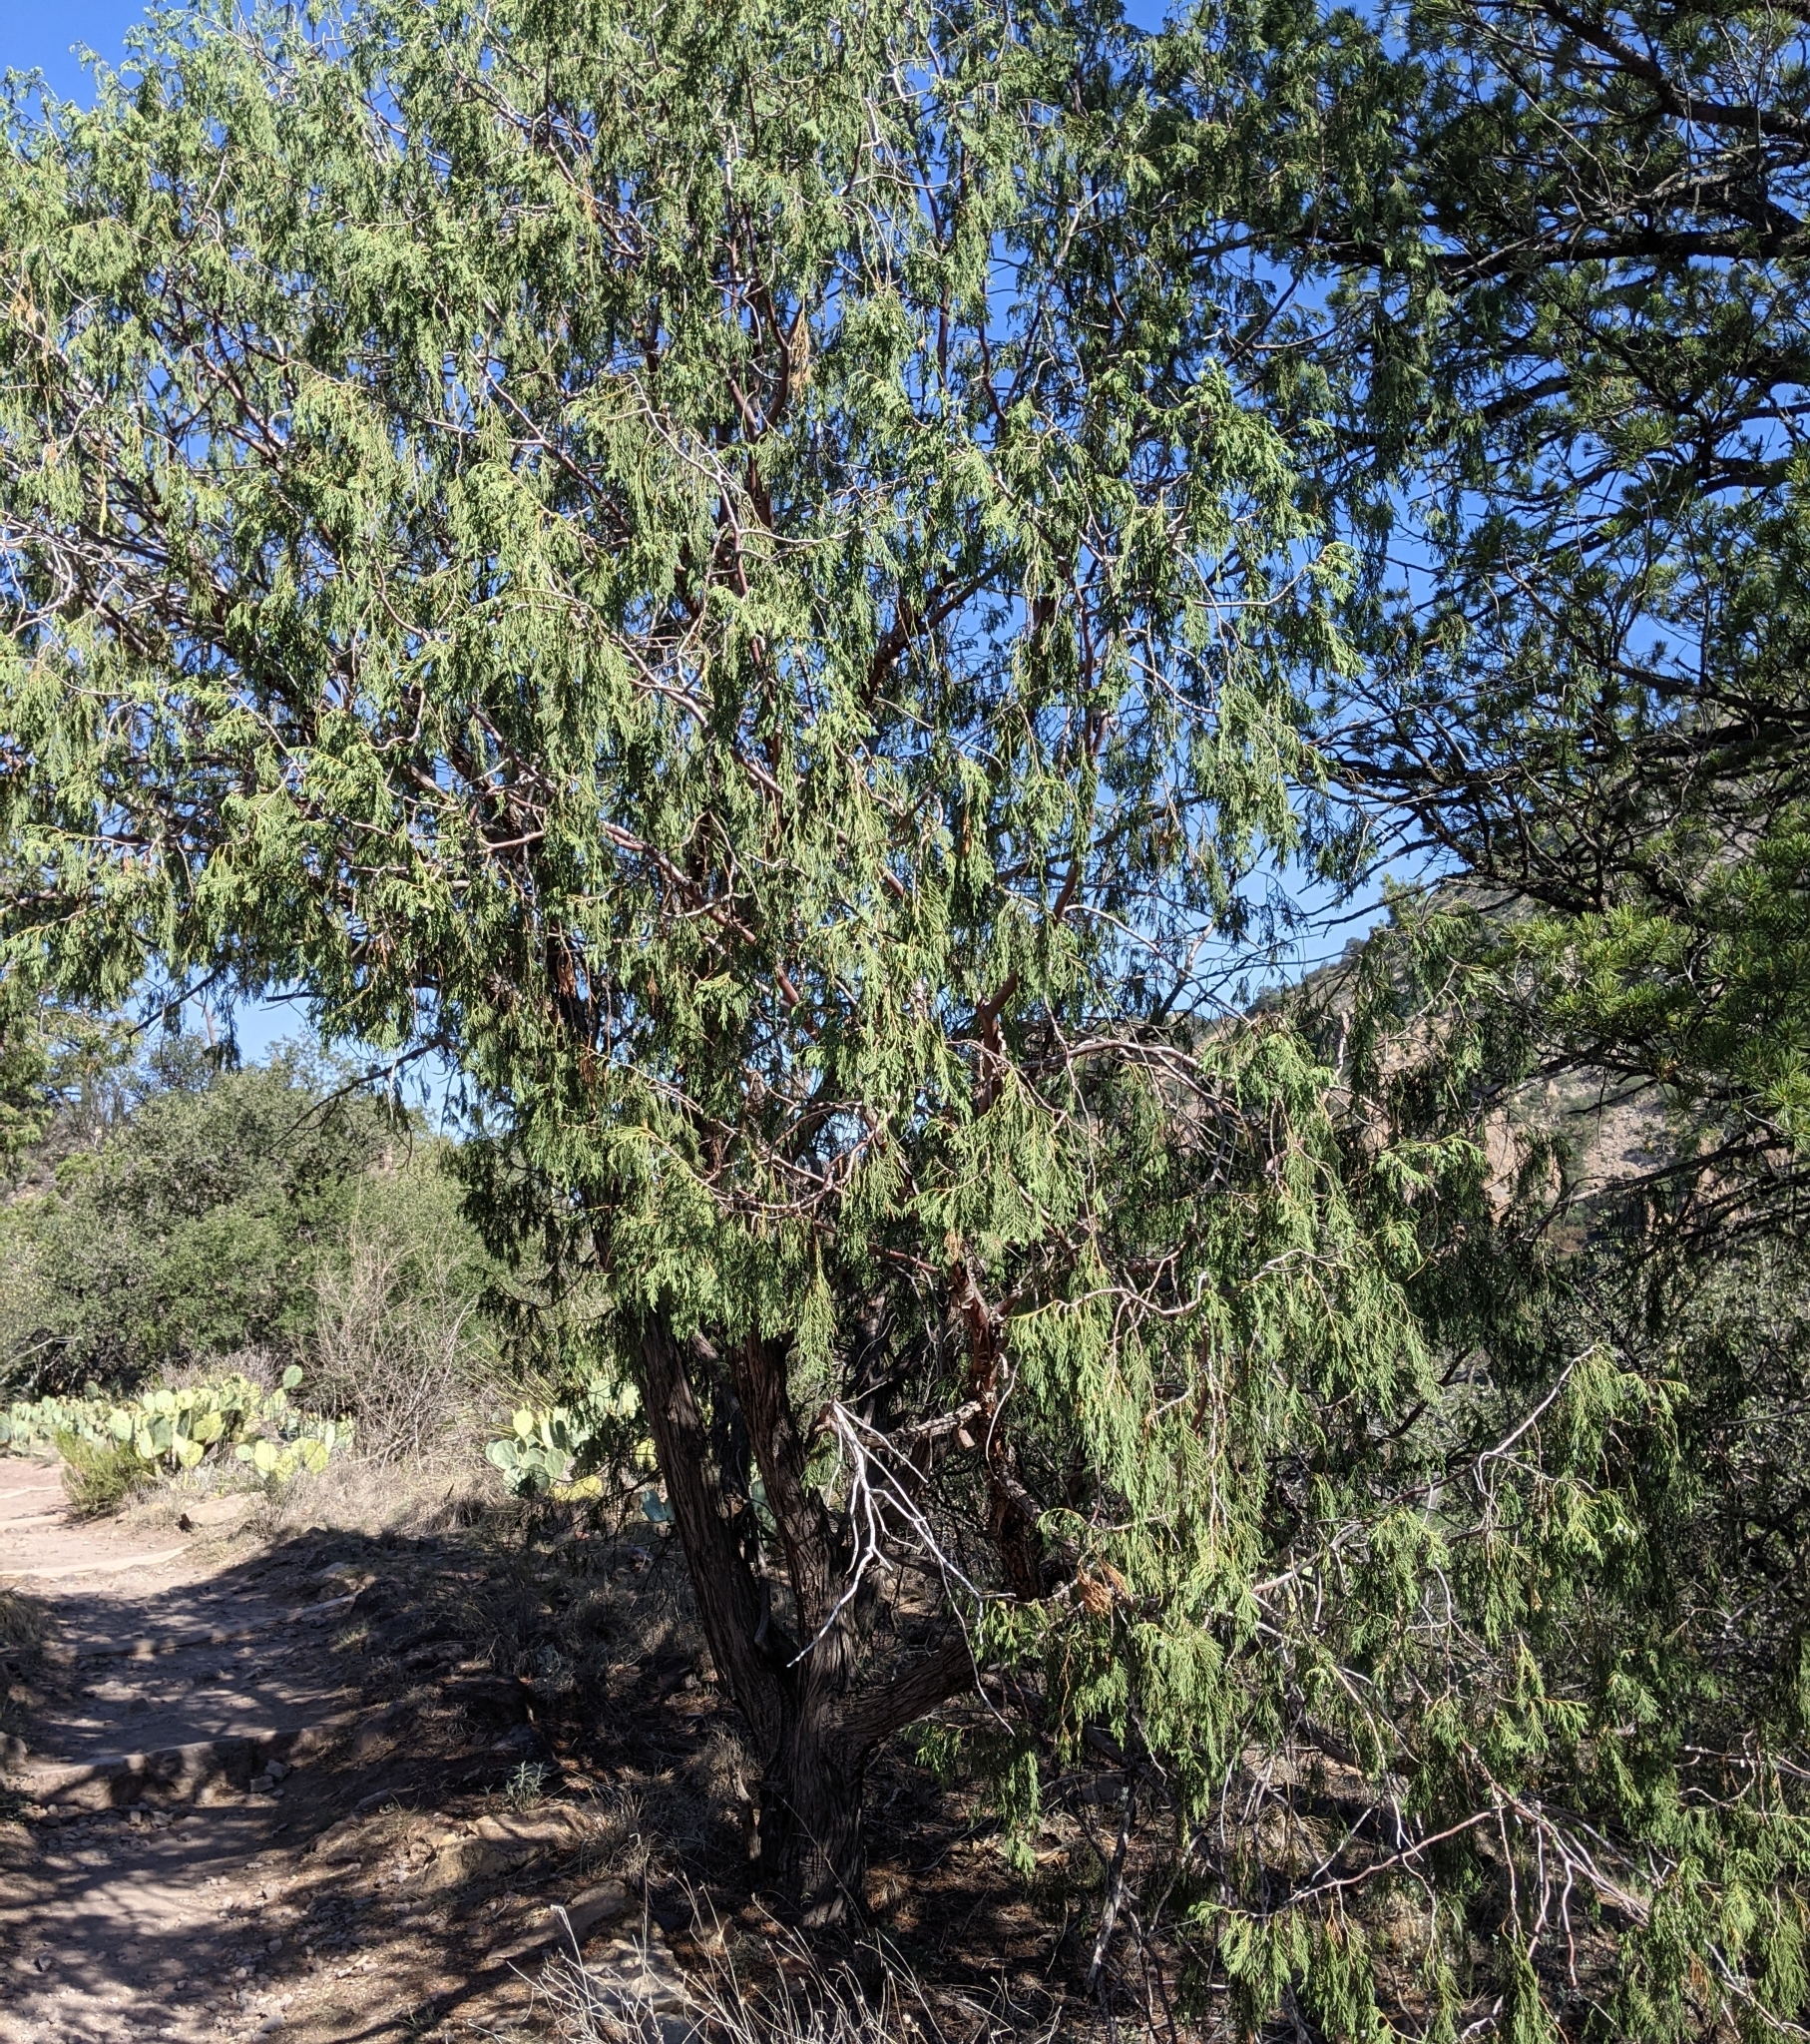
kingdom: Plantae
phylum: Tracheophyta
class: Pinopsida
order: Pinales
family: Cupressaceae
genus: Juniperus
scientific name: Juniperus flaccida
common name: Drooping juniper
